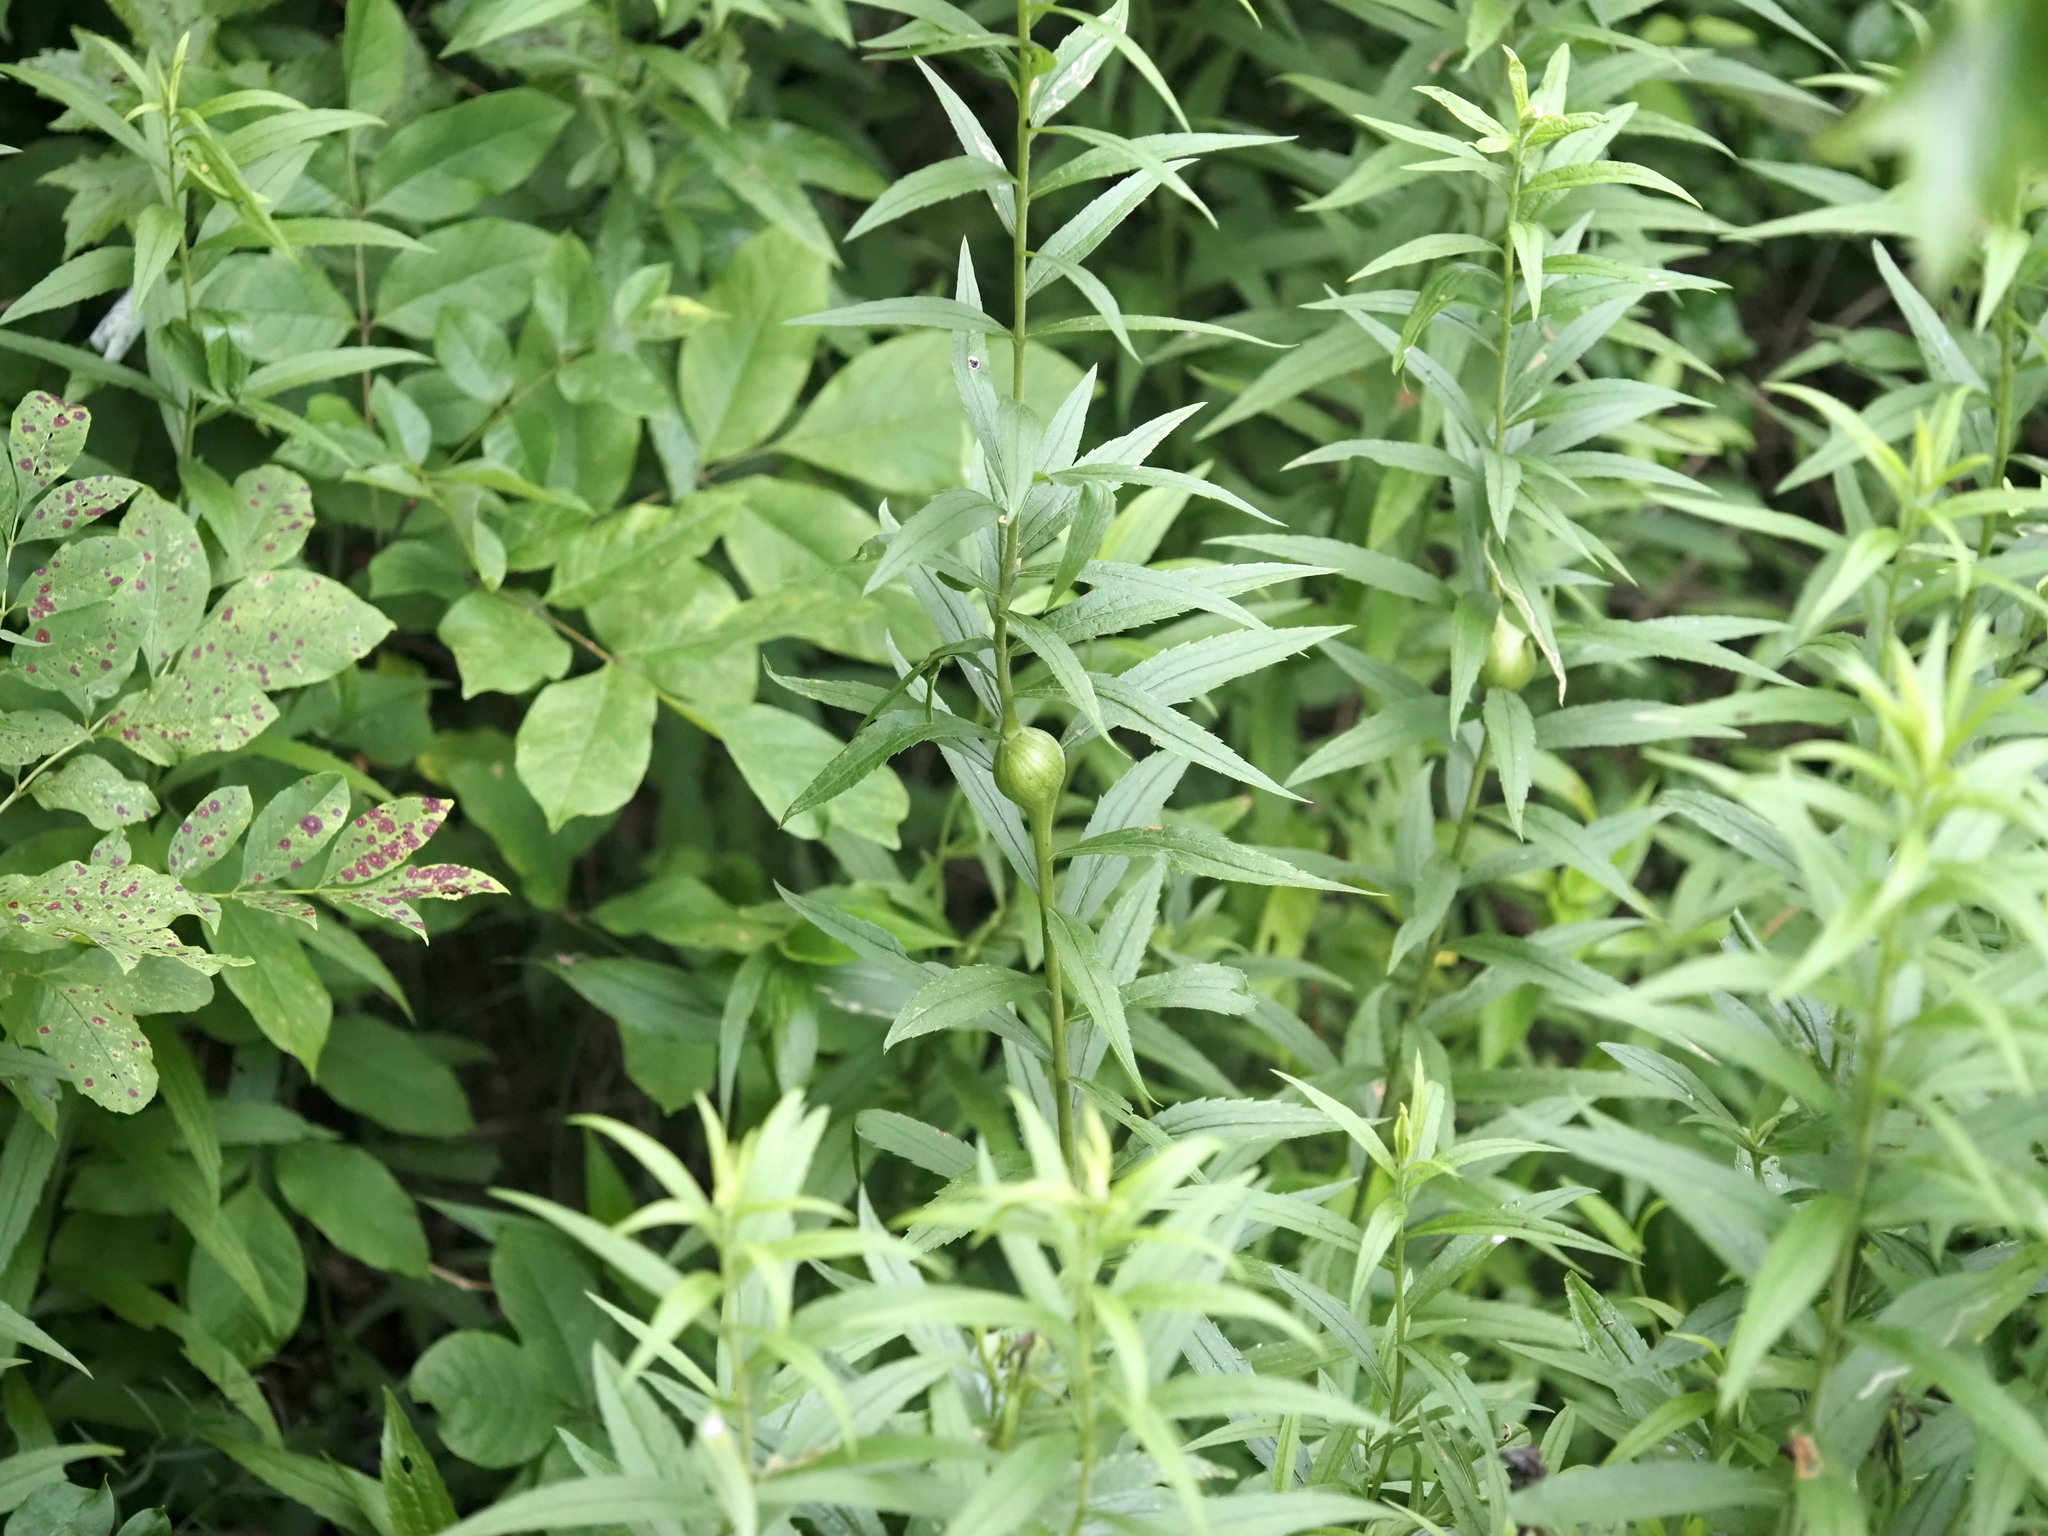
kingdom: Animalia
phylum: Arthropoda
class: Insecta
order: Diptera
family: Tephritidae
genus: Eurosta
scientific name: Eurosta solidaginis
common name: Goldenrod gall fly
